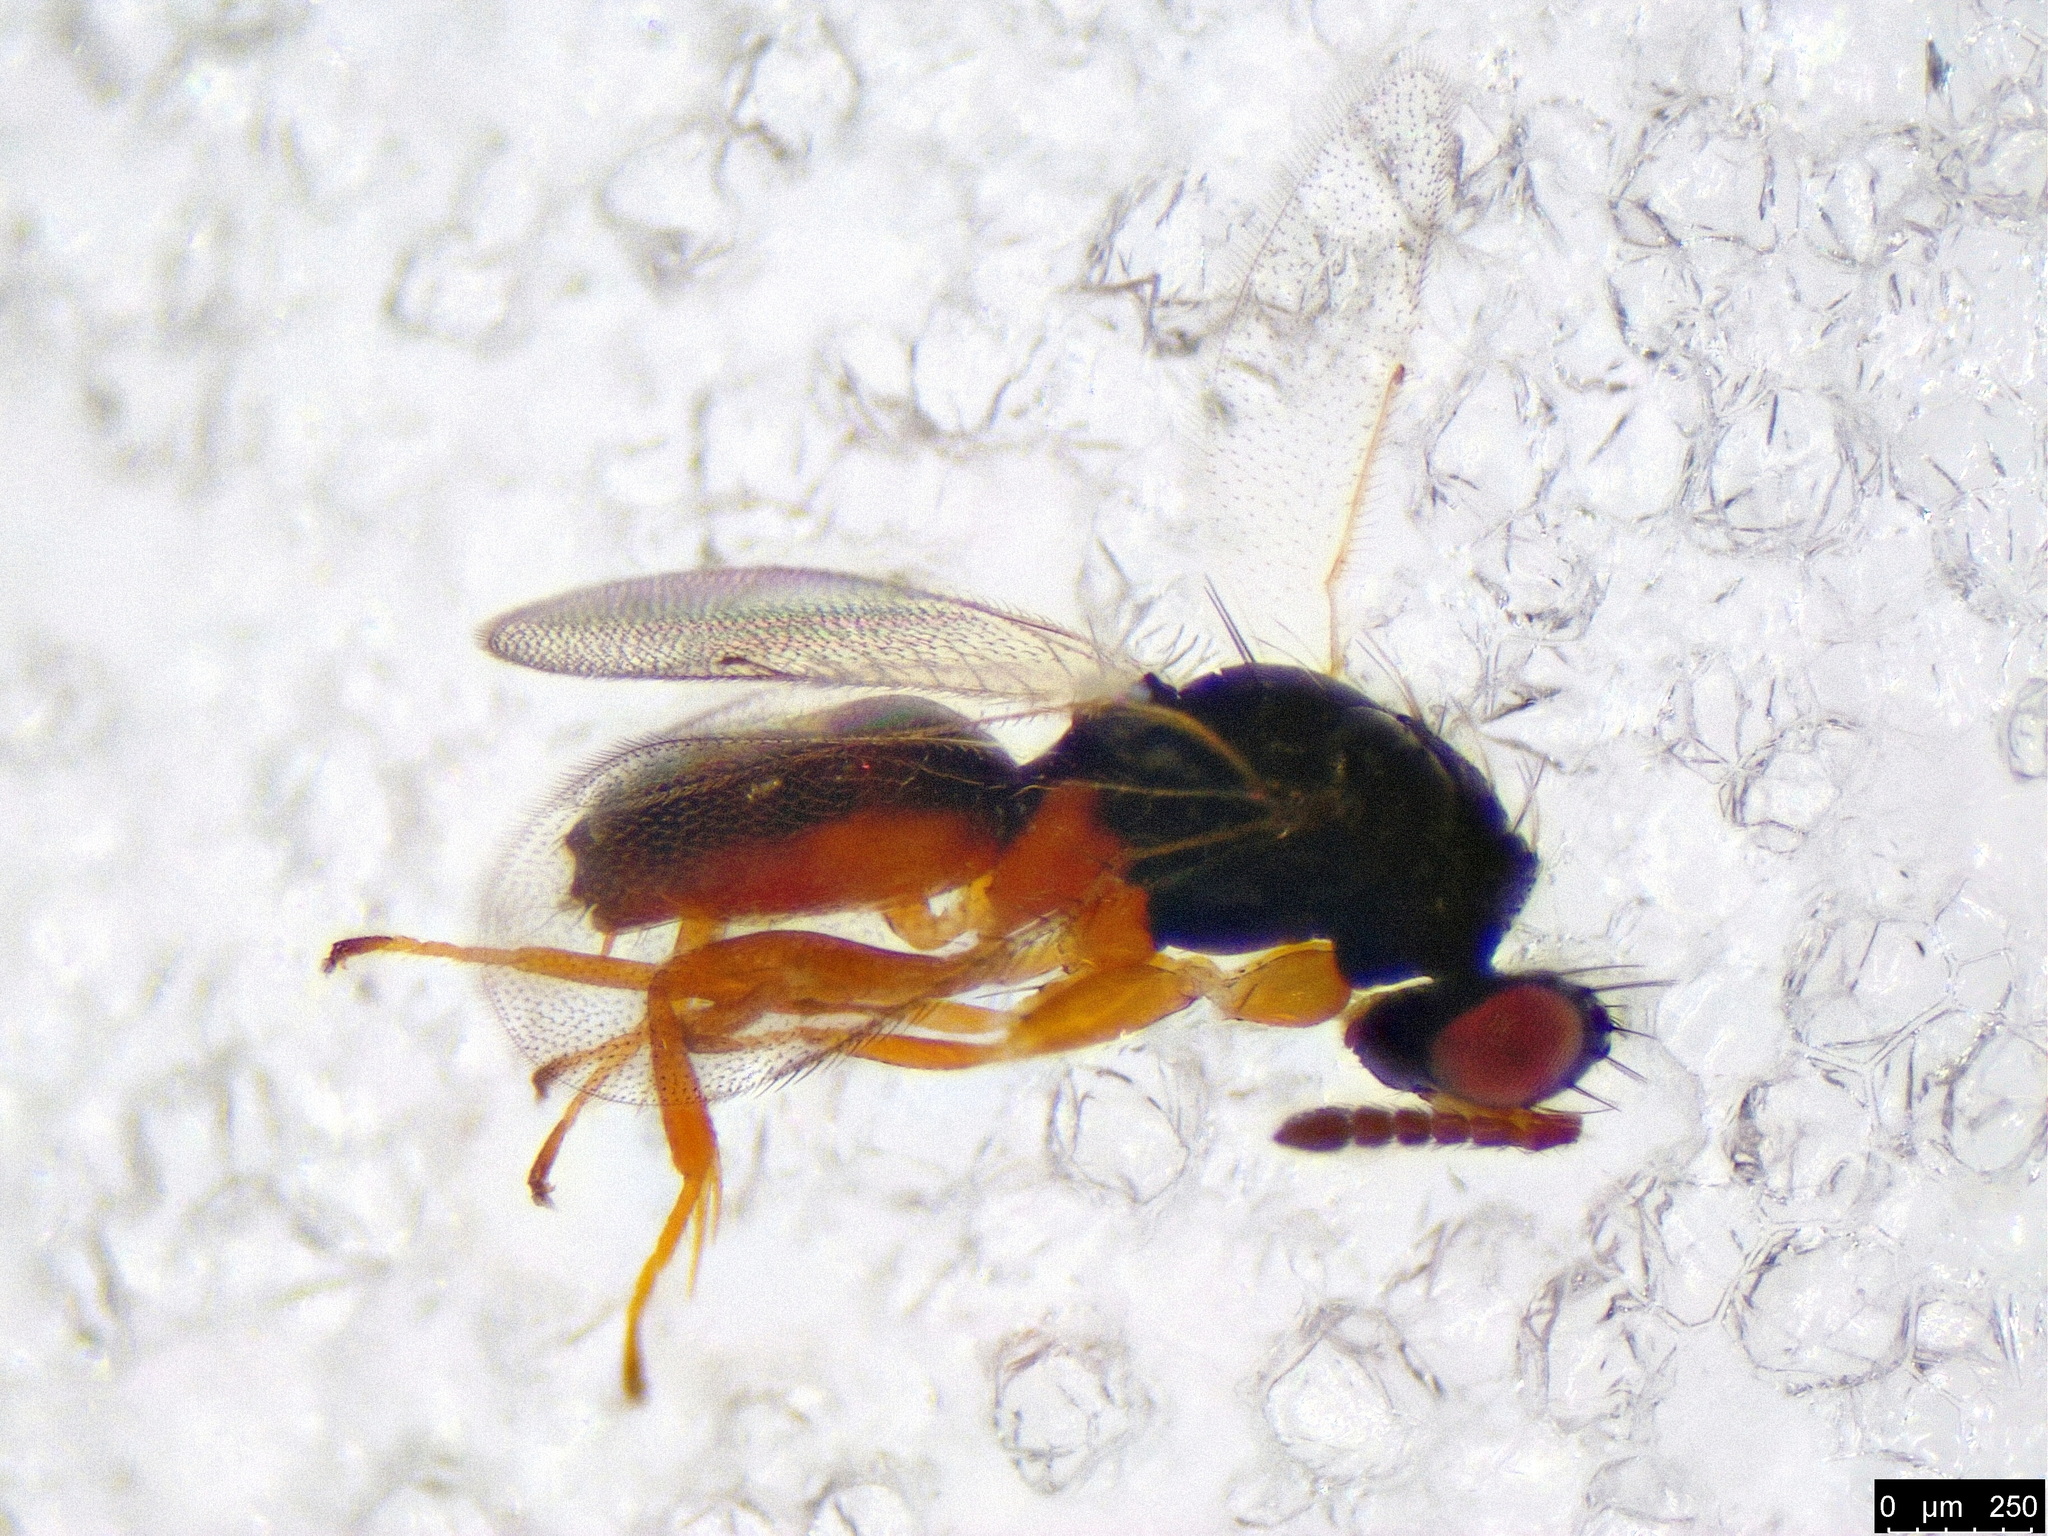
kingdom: Animalia
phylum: Arthropoda
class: Insecta
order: Hymenoptera
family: Eulophidae
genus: Euplectrus
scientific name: Euplectrus
